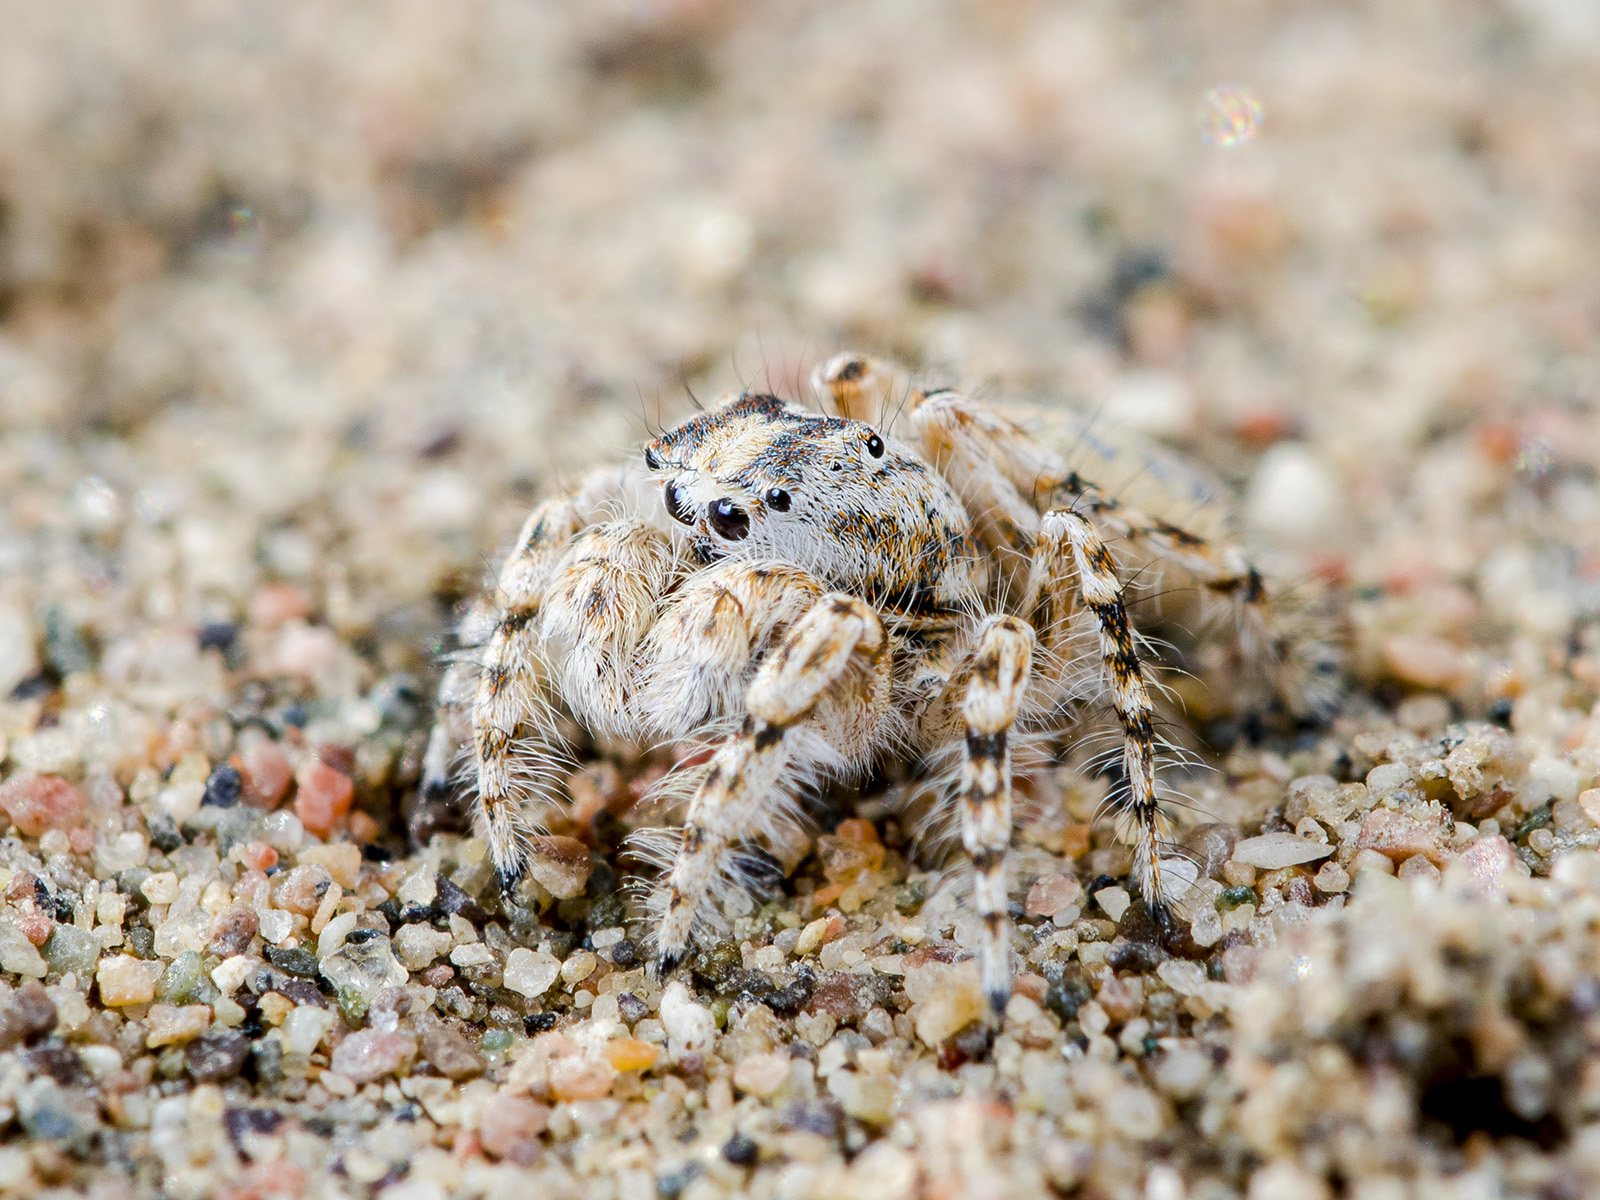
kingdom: Animalia
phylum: Arthropoda
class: Arachnida
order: Araneae
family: Salticidae
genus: Yllenus
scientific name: Yllenus turkestanicus
